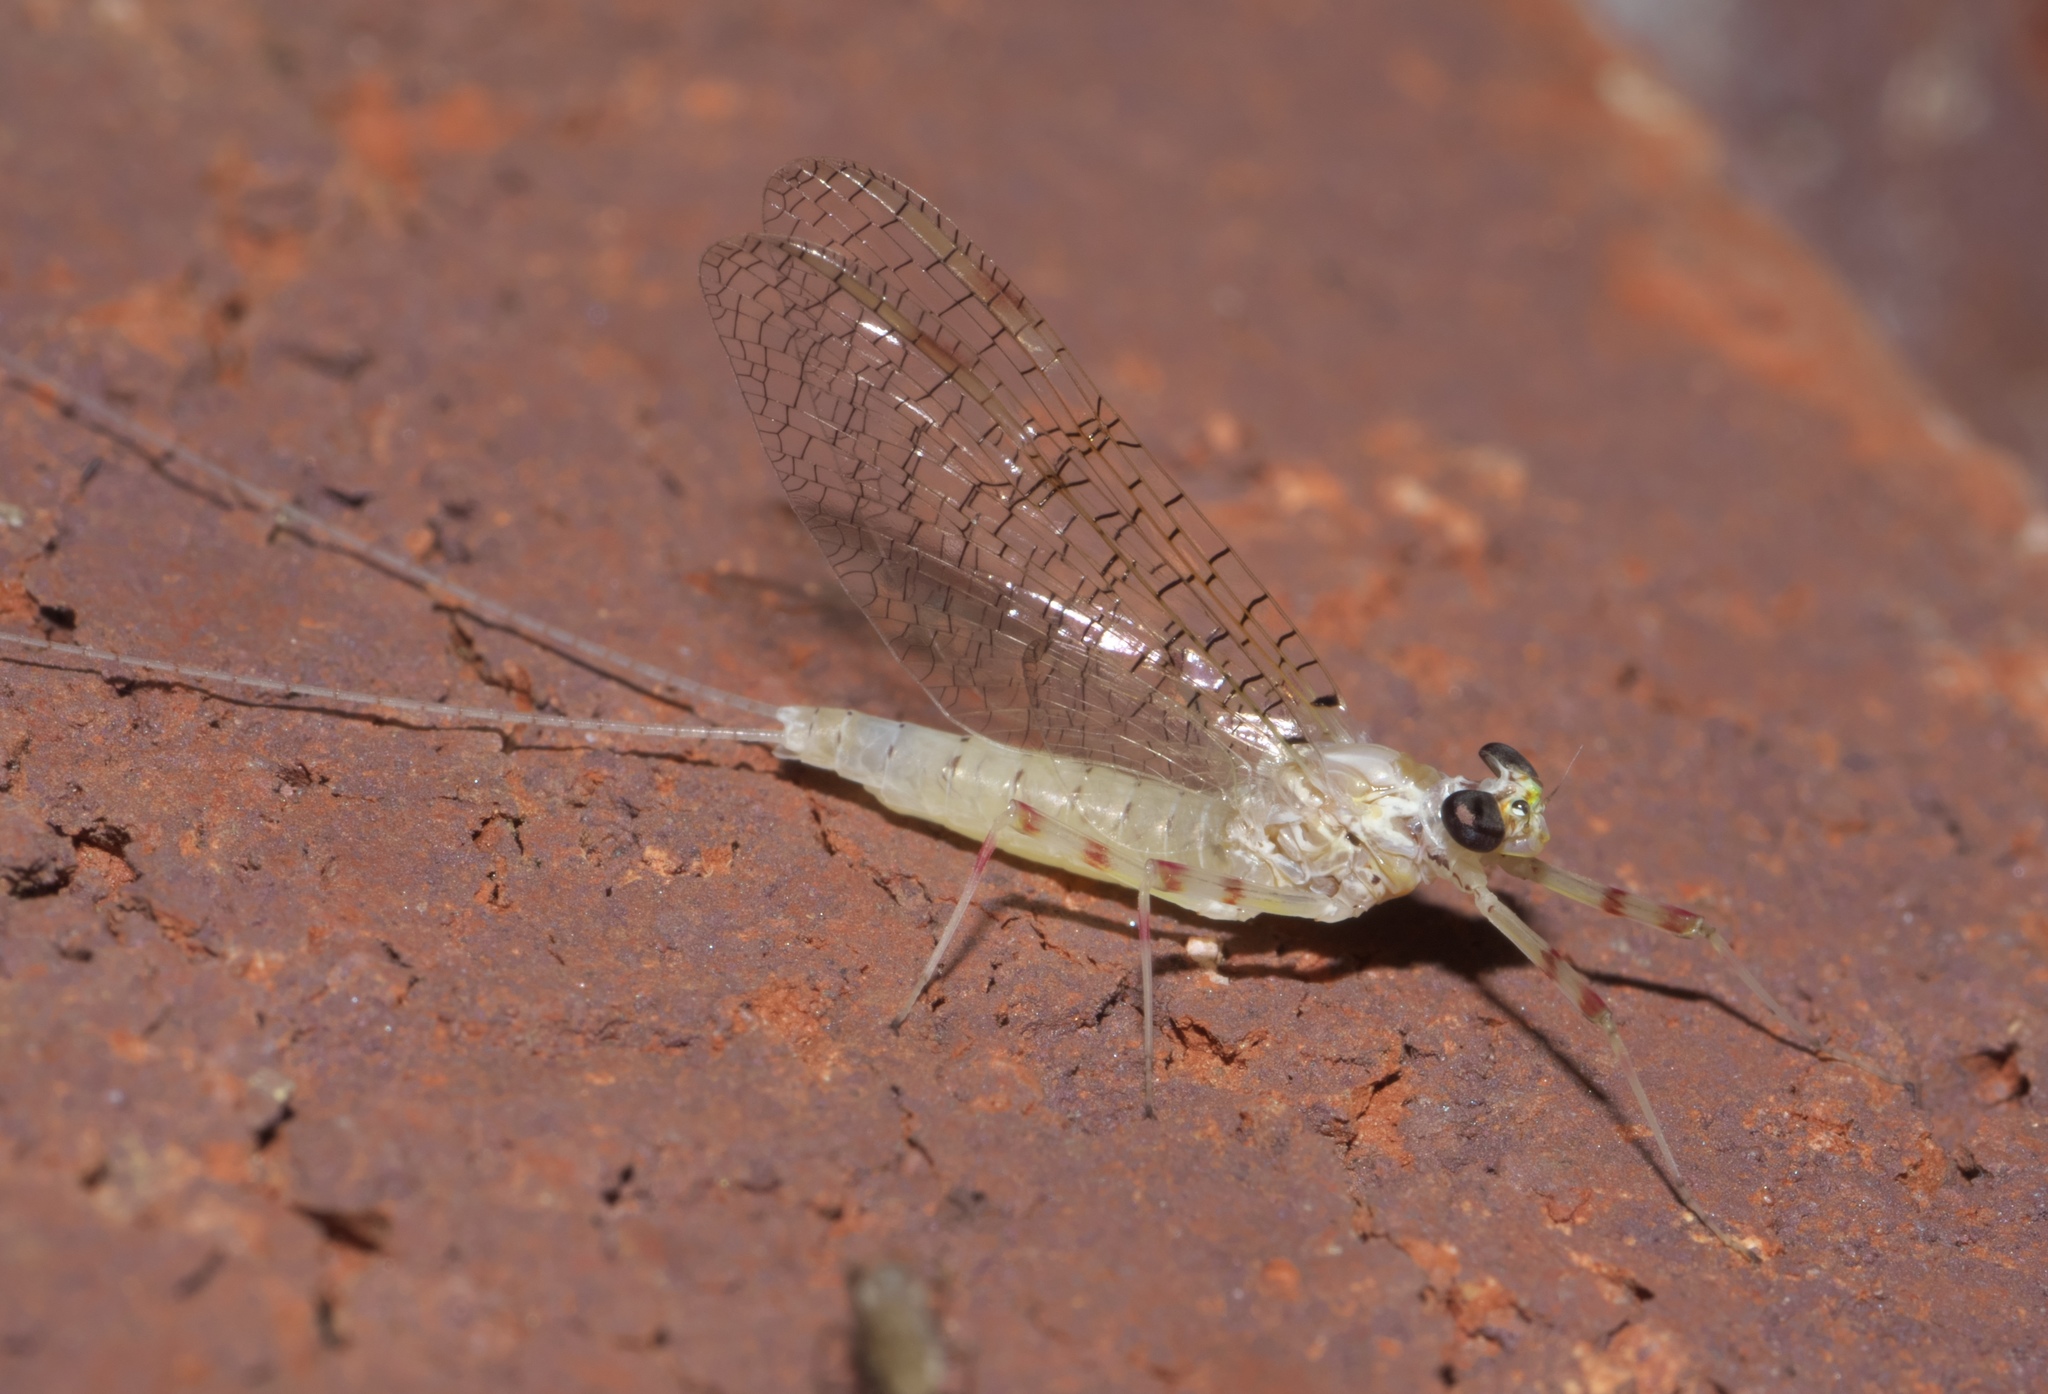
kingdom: Animalia
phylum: Arthropoda
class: Insecta
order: Ephemeroptera
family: Heptageniidae
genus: Stenonema
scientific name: Stenonema femoratum
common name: Dark cahill
